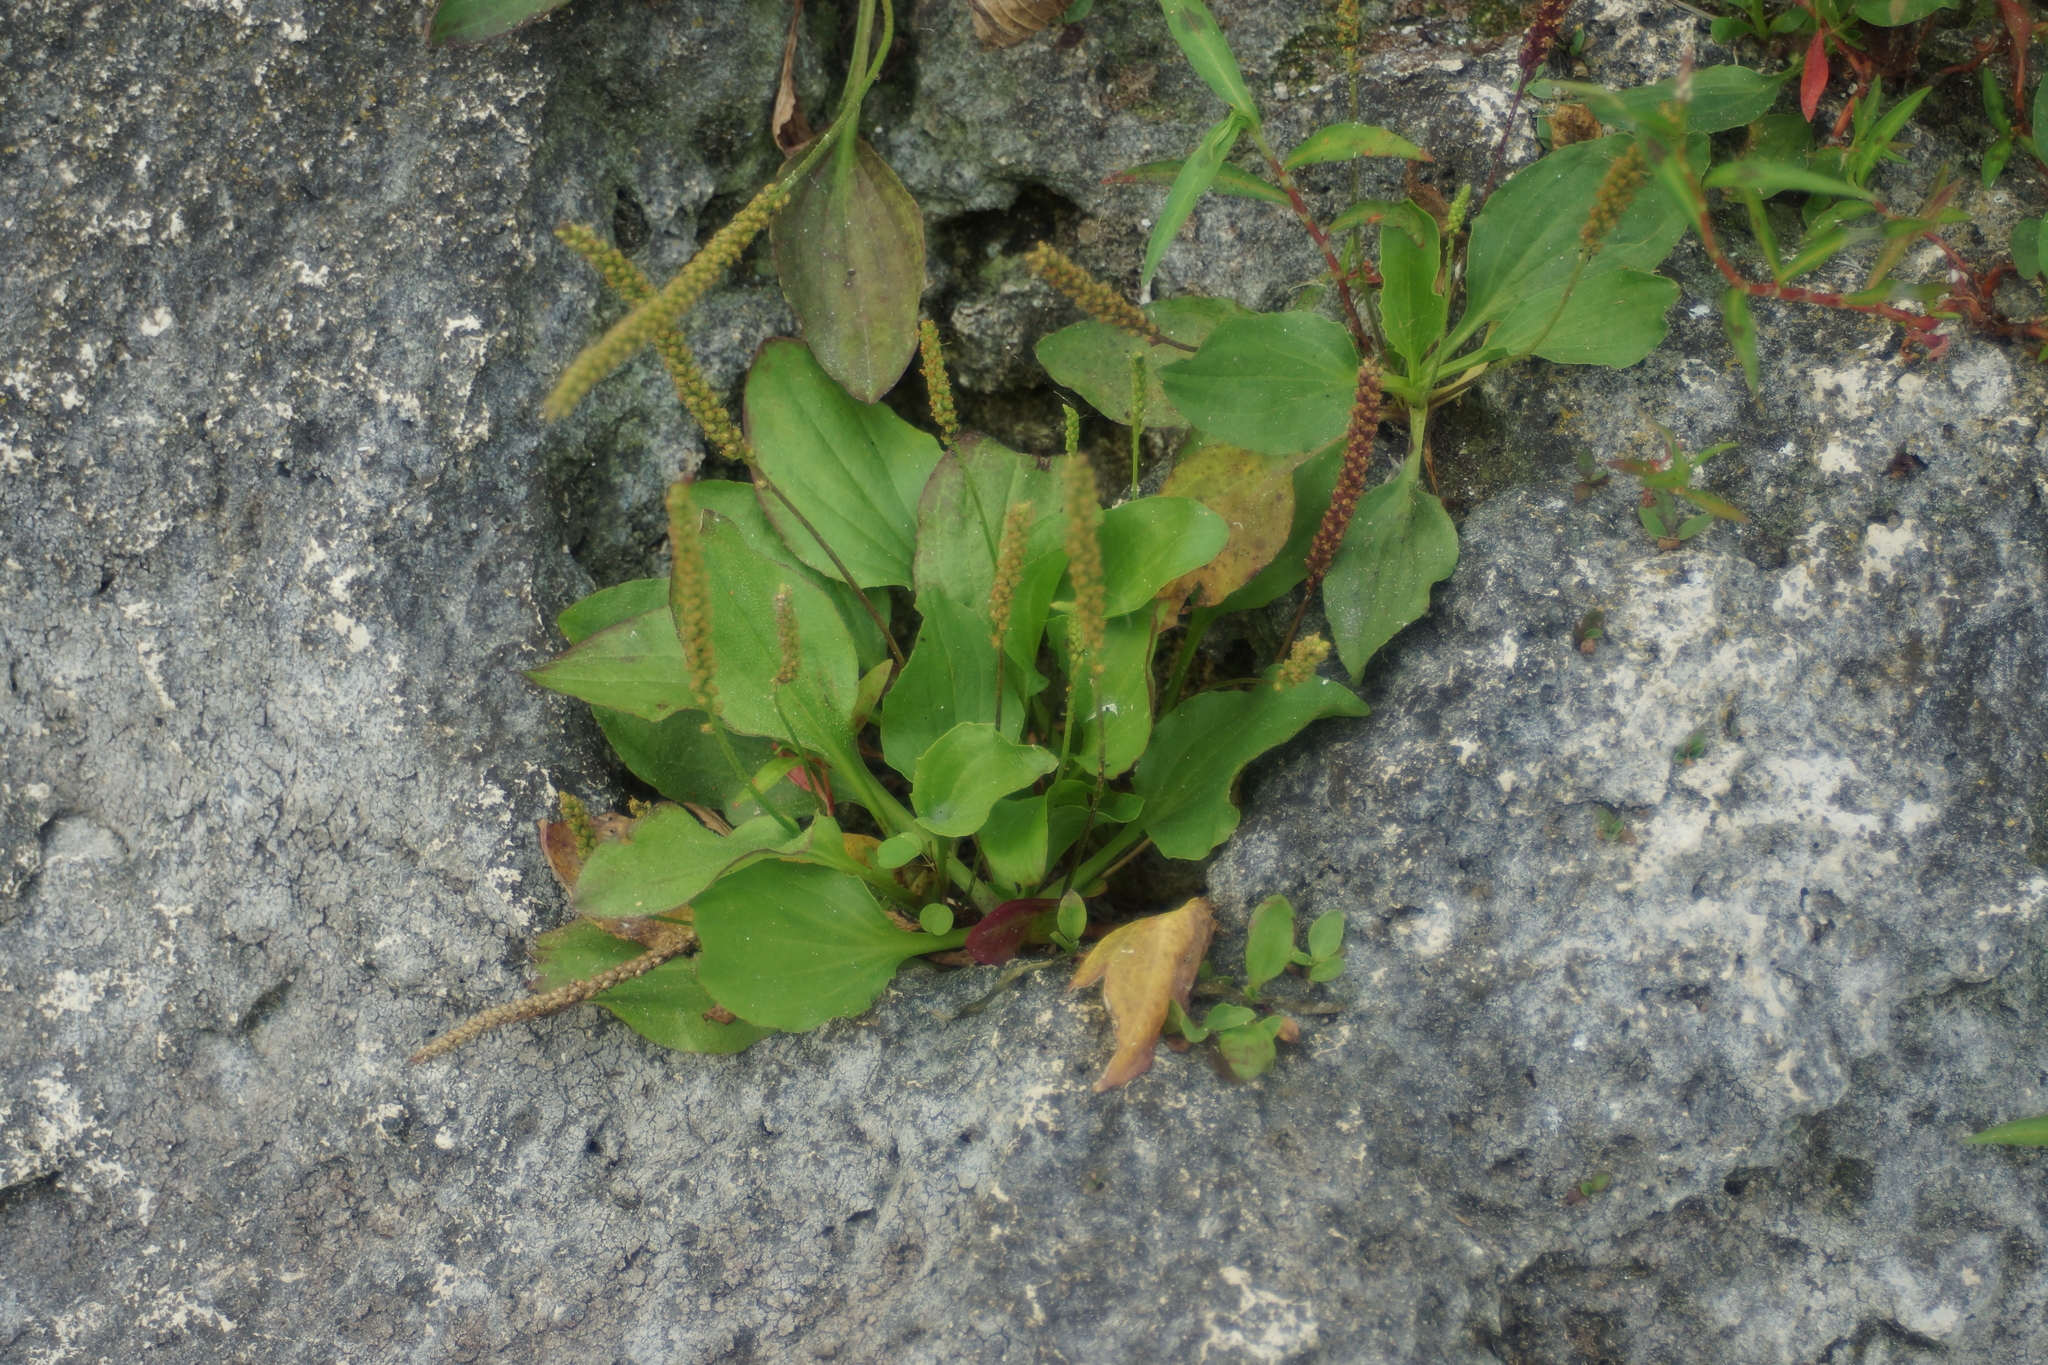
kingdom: Plantae
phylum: Tracheophyta
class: Magnoliopsida
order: Lamiales
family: Plantaginaceae
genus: Plantago
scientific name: Plantago uliginosa
